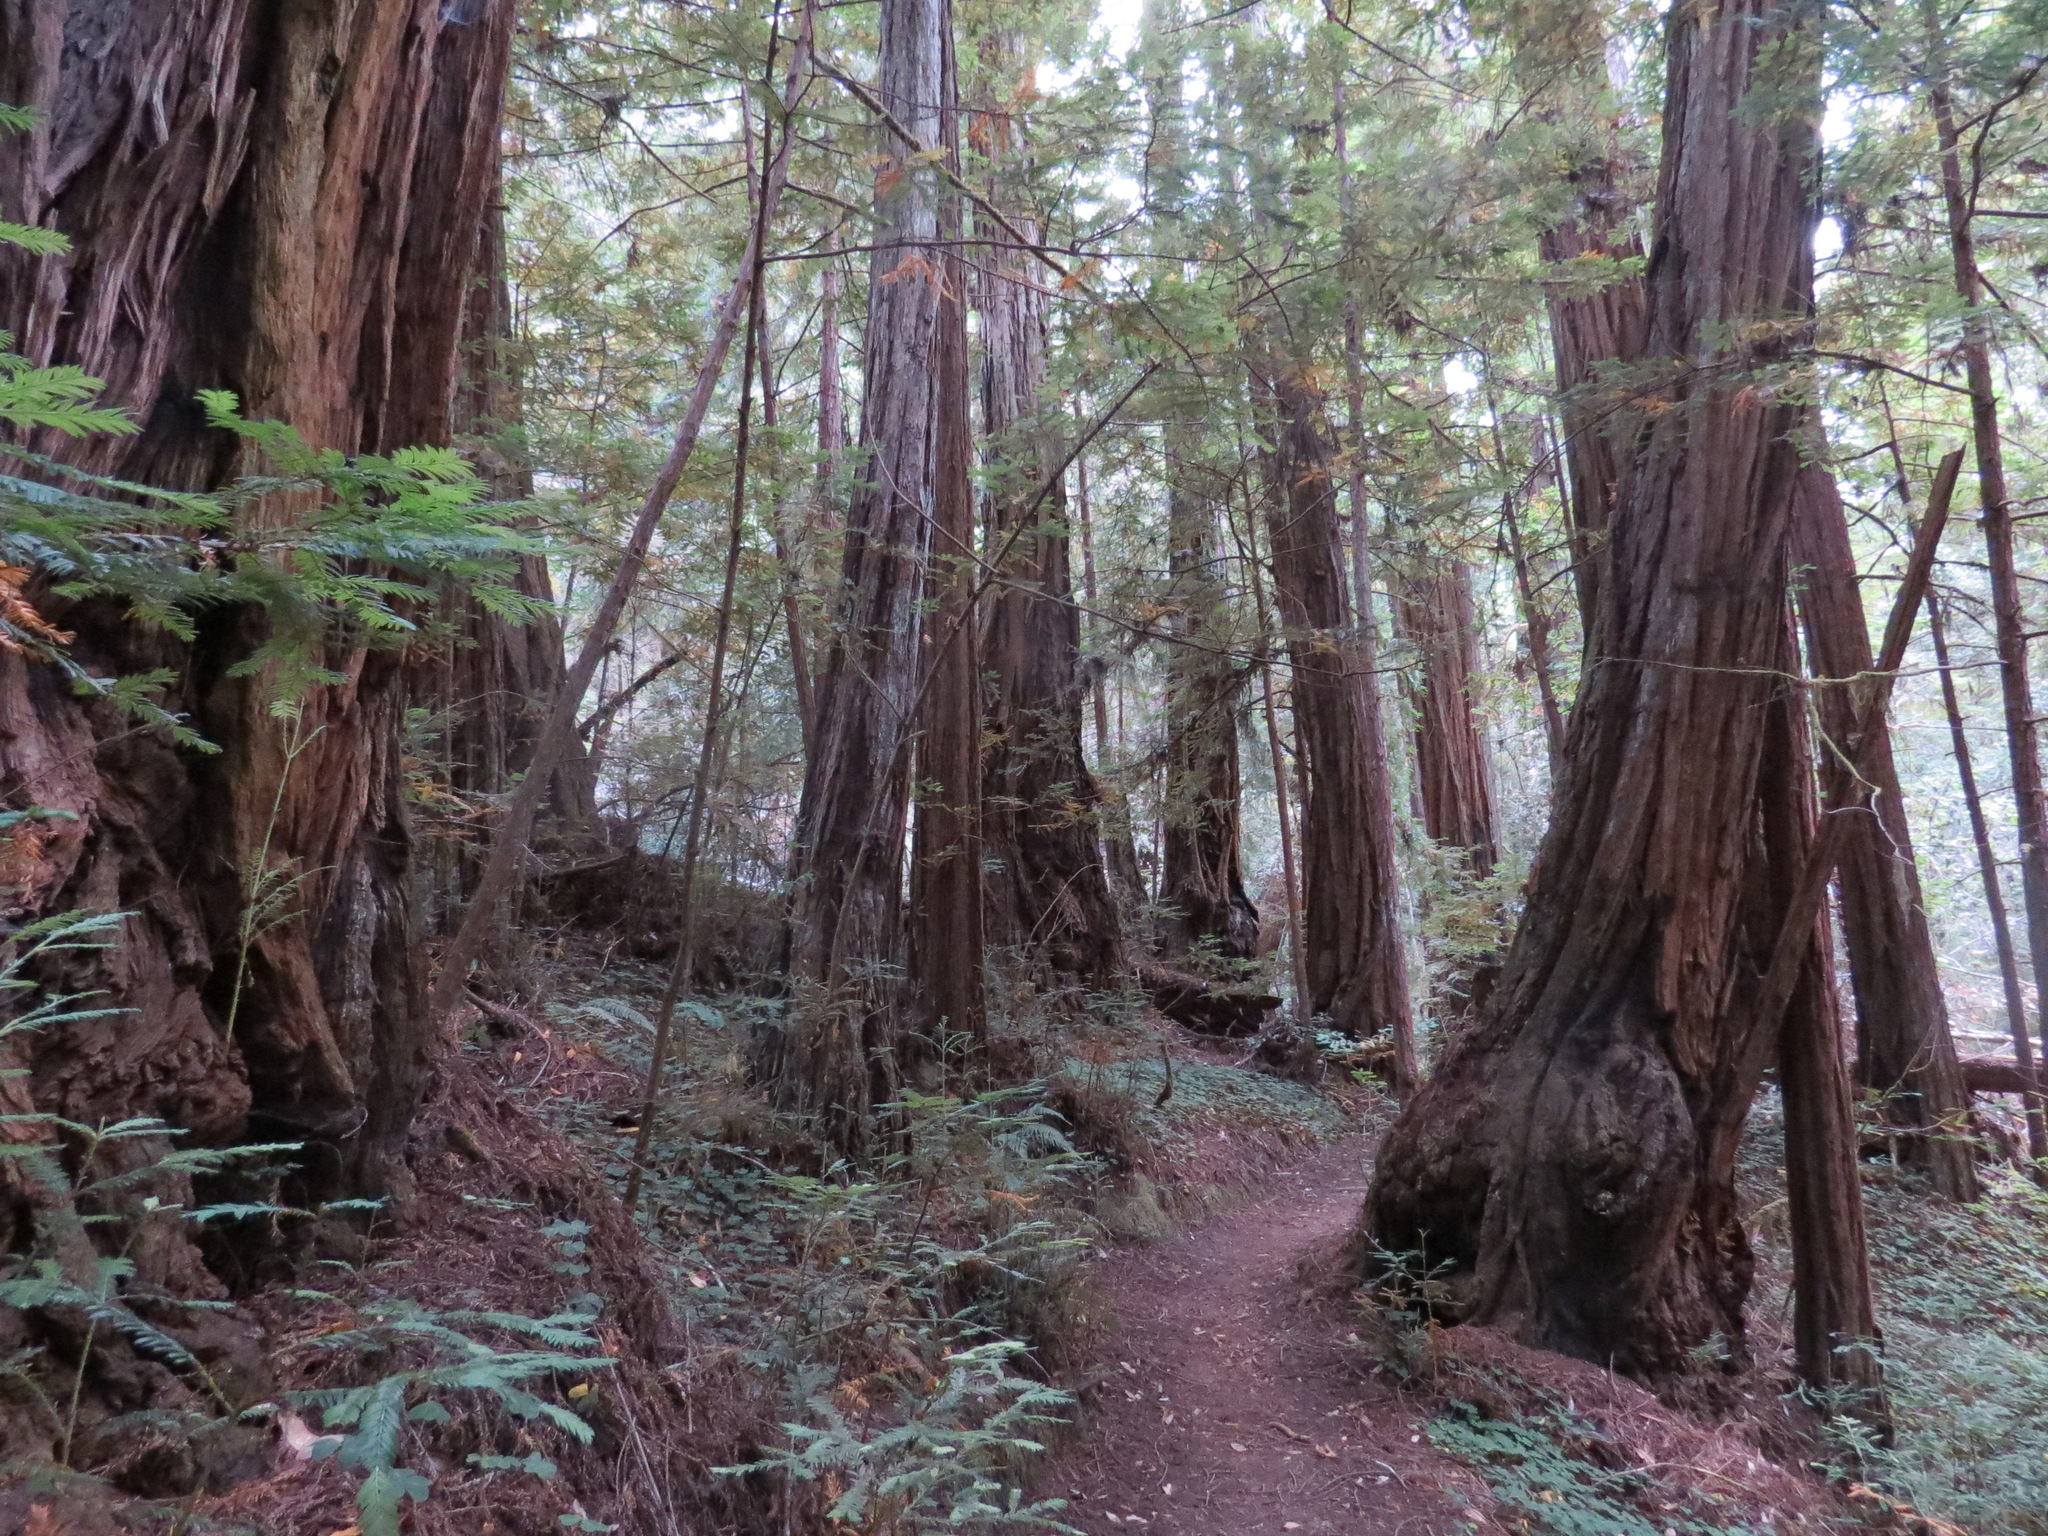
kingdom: Plantae
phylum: Tracheophyta
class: Pinopsida
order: Pinales
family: Cupressaceae
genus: Sequoia
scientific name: Sequoia sempervirens
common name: Coast redwood
